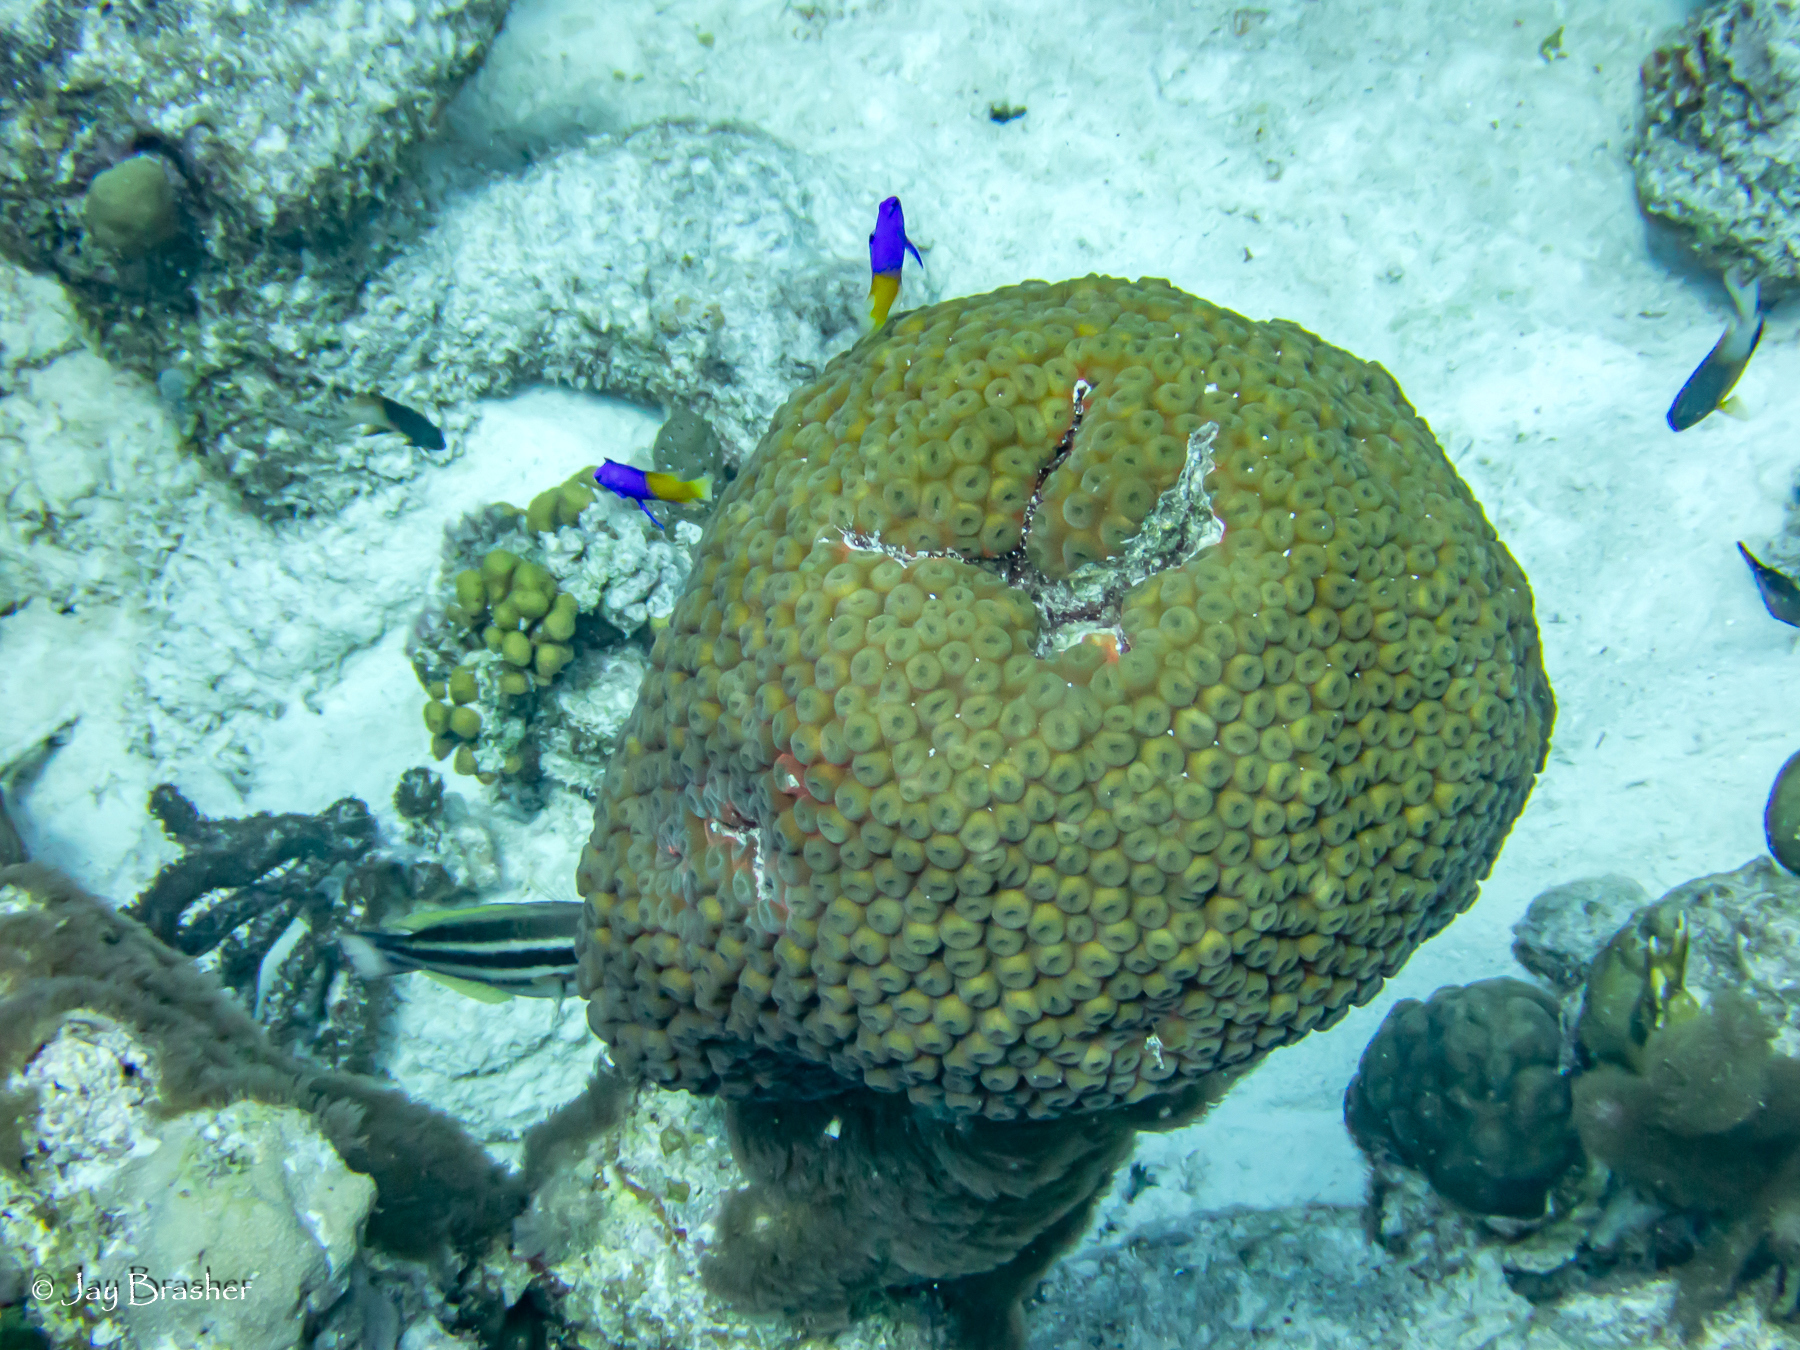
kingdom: Animalia
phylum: Cnidaria
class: Anthozoa
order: Scleractinia
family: Montastraeidae
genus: Montastraea
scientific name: Montastraea cavernosa
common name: Great star coral
